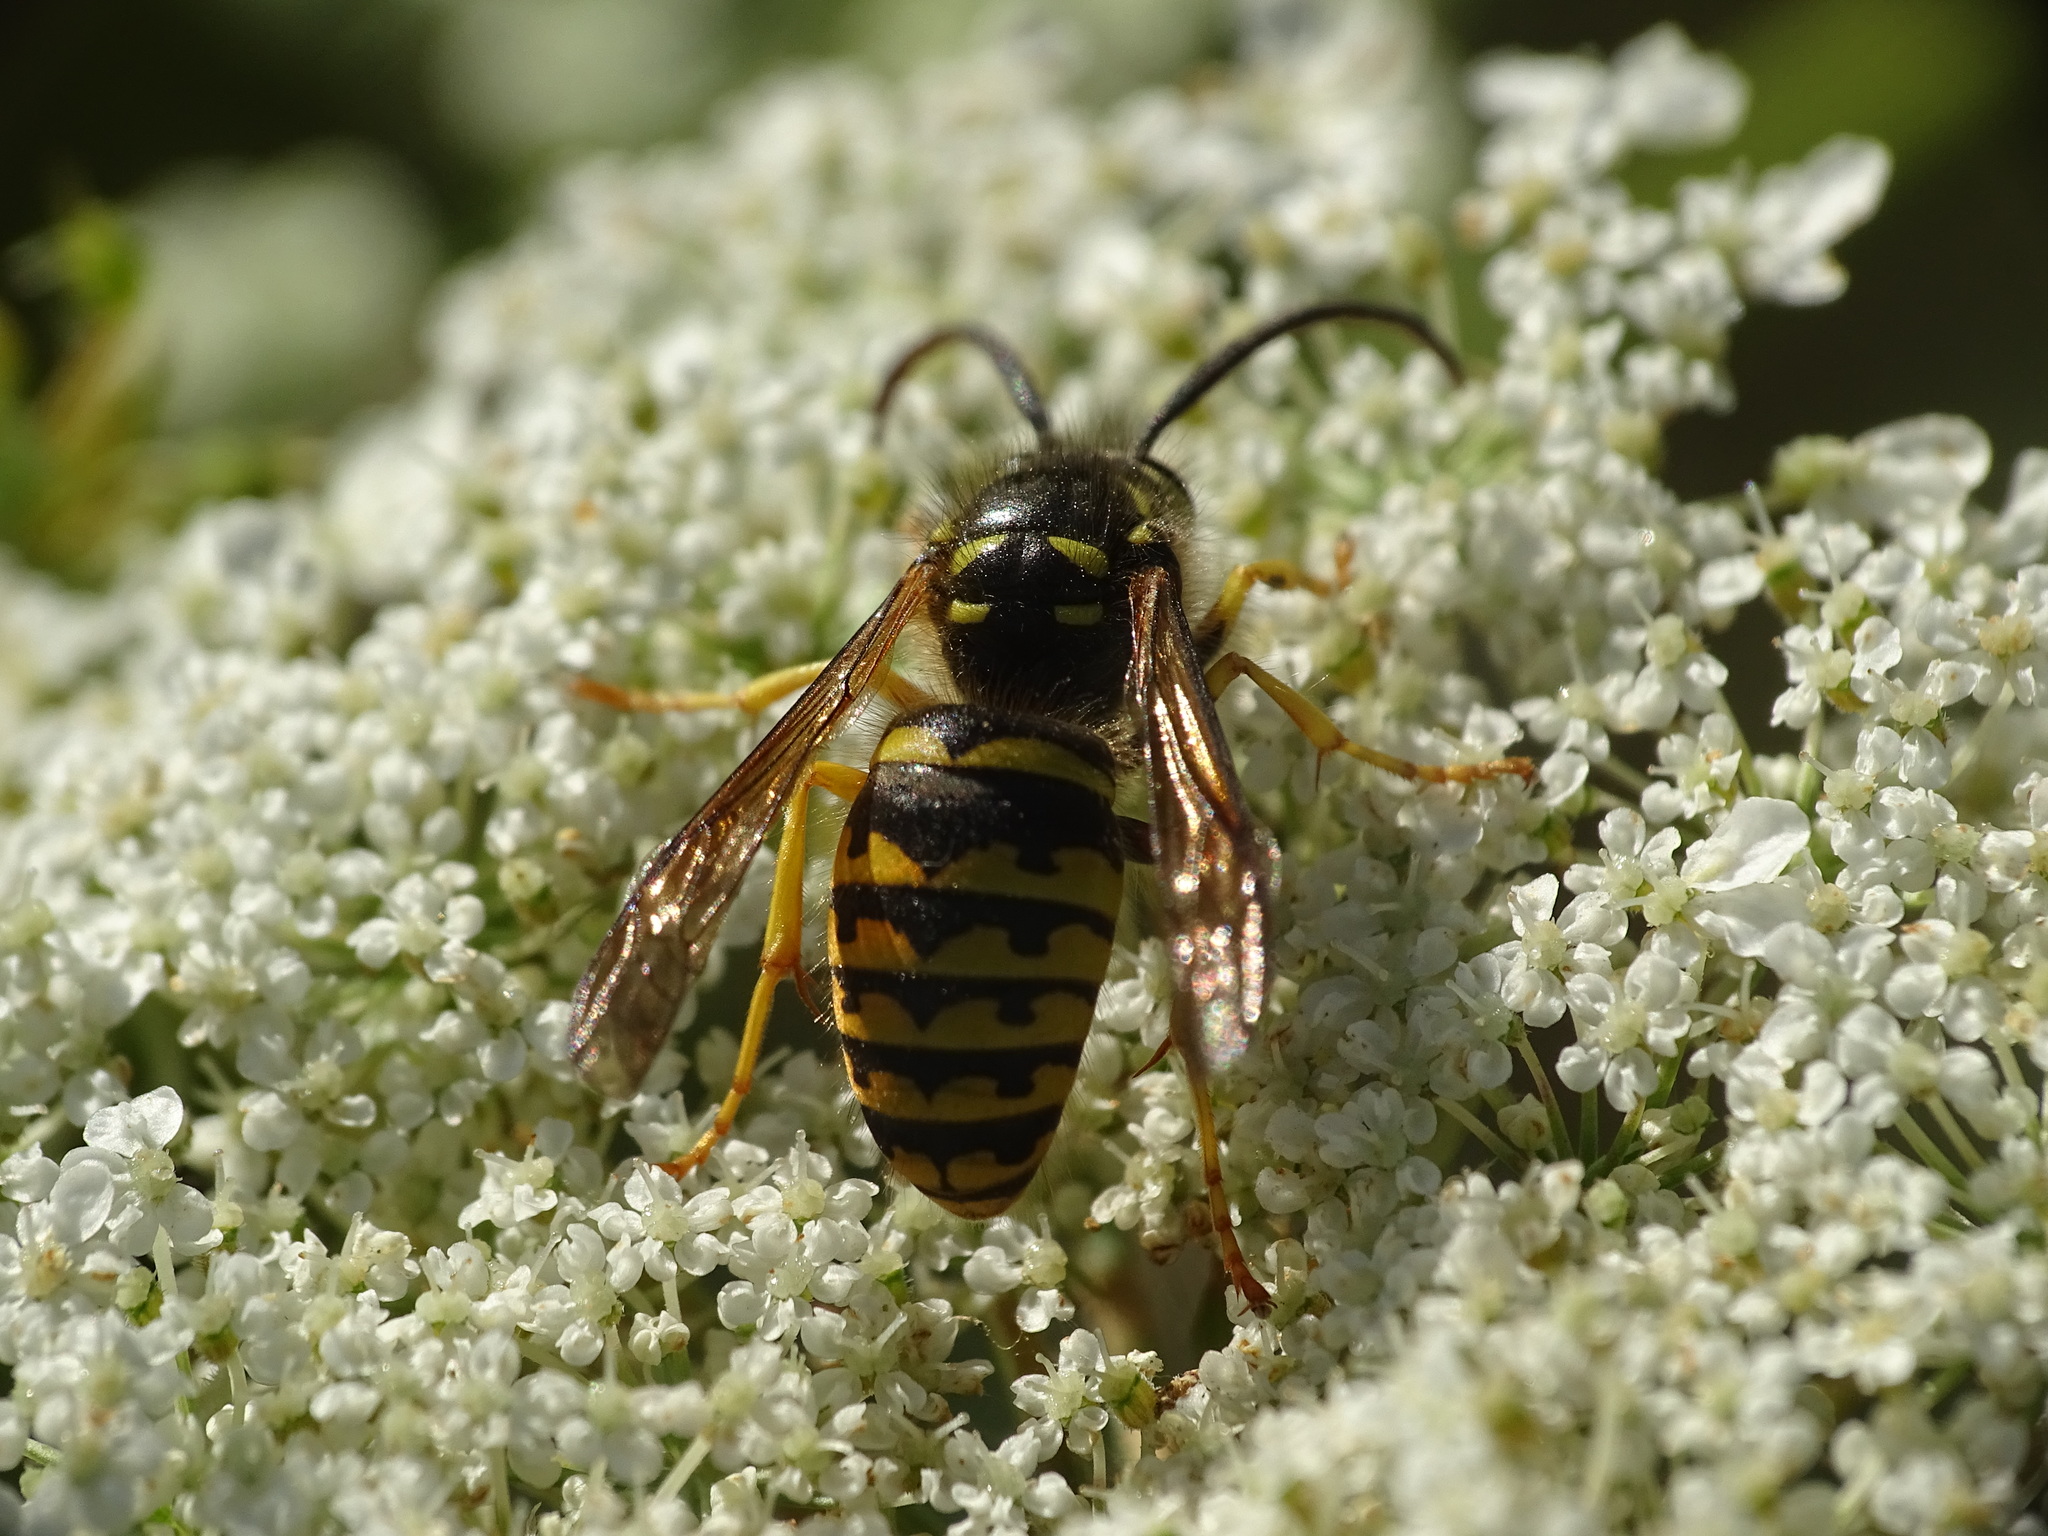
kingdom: Animalia
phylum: Arthropoda
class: Insecta
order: Hymenoptera
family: Vespidae
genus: Dolichovespula
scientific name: Dolichovespula arenaria
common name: Aerial yellowjacket
